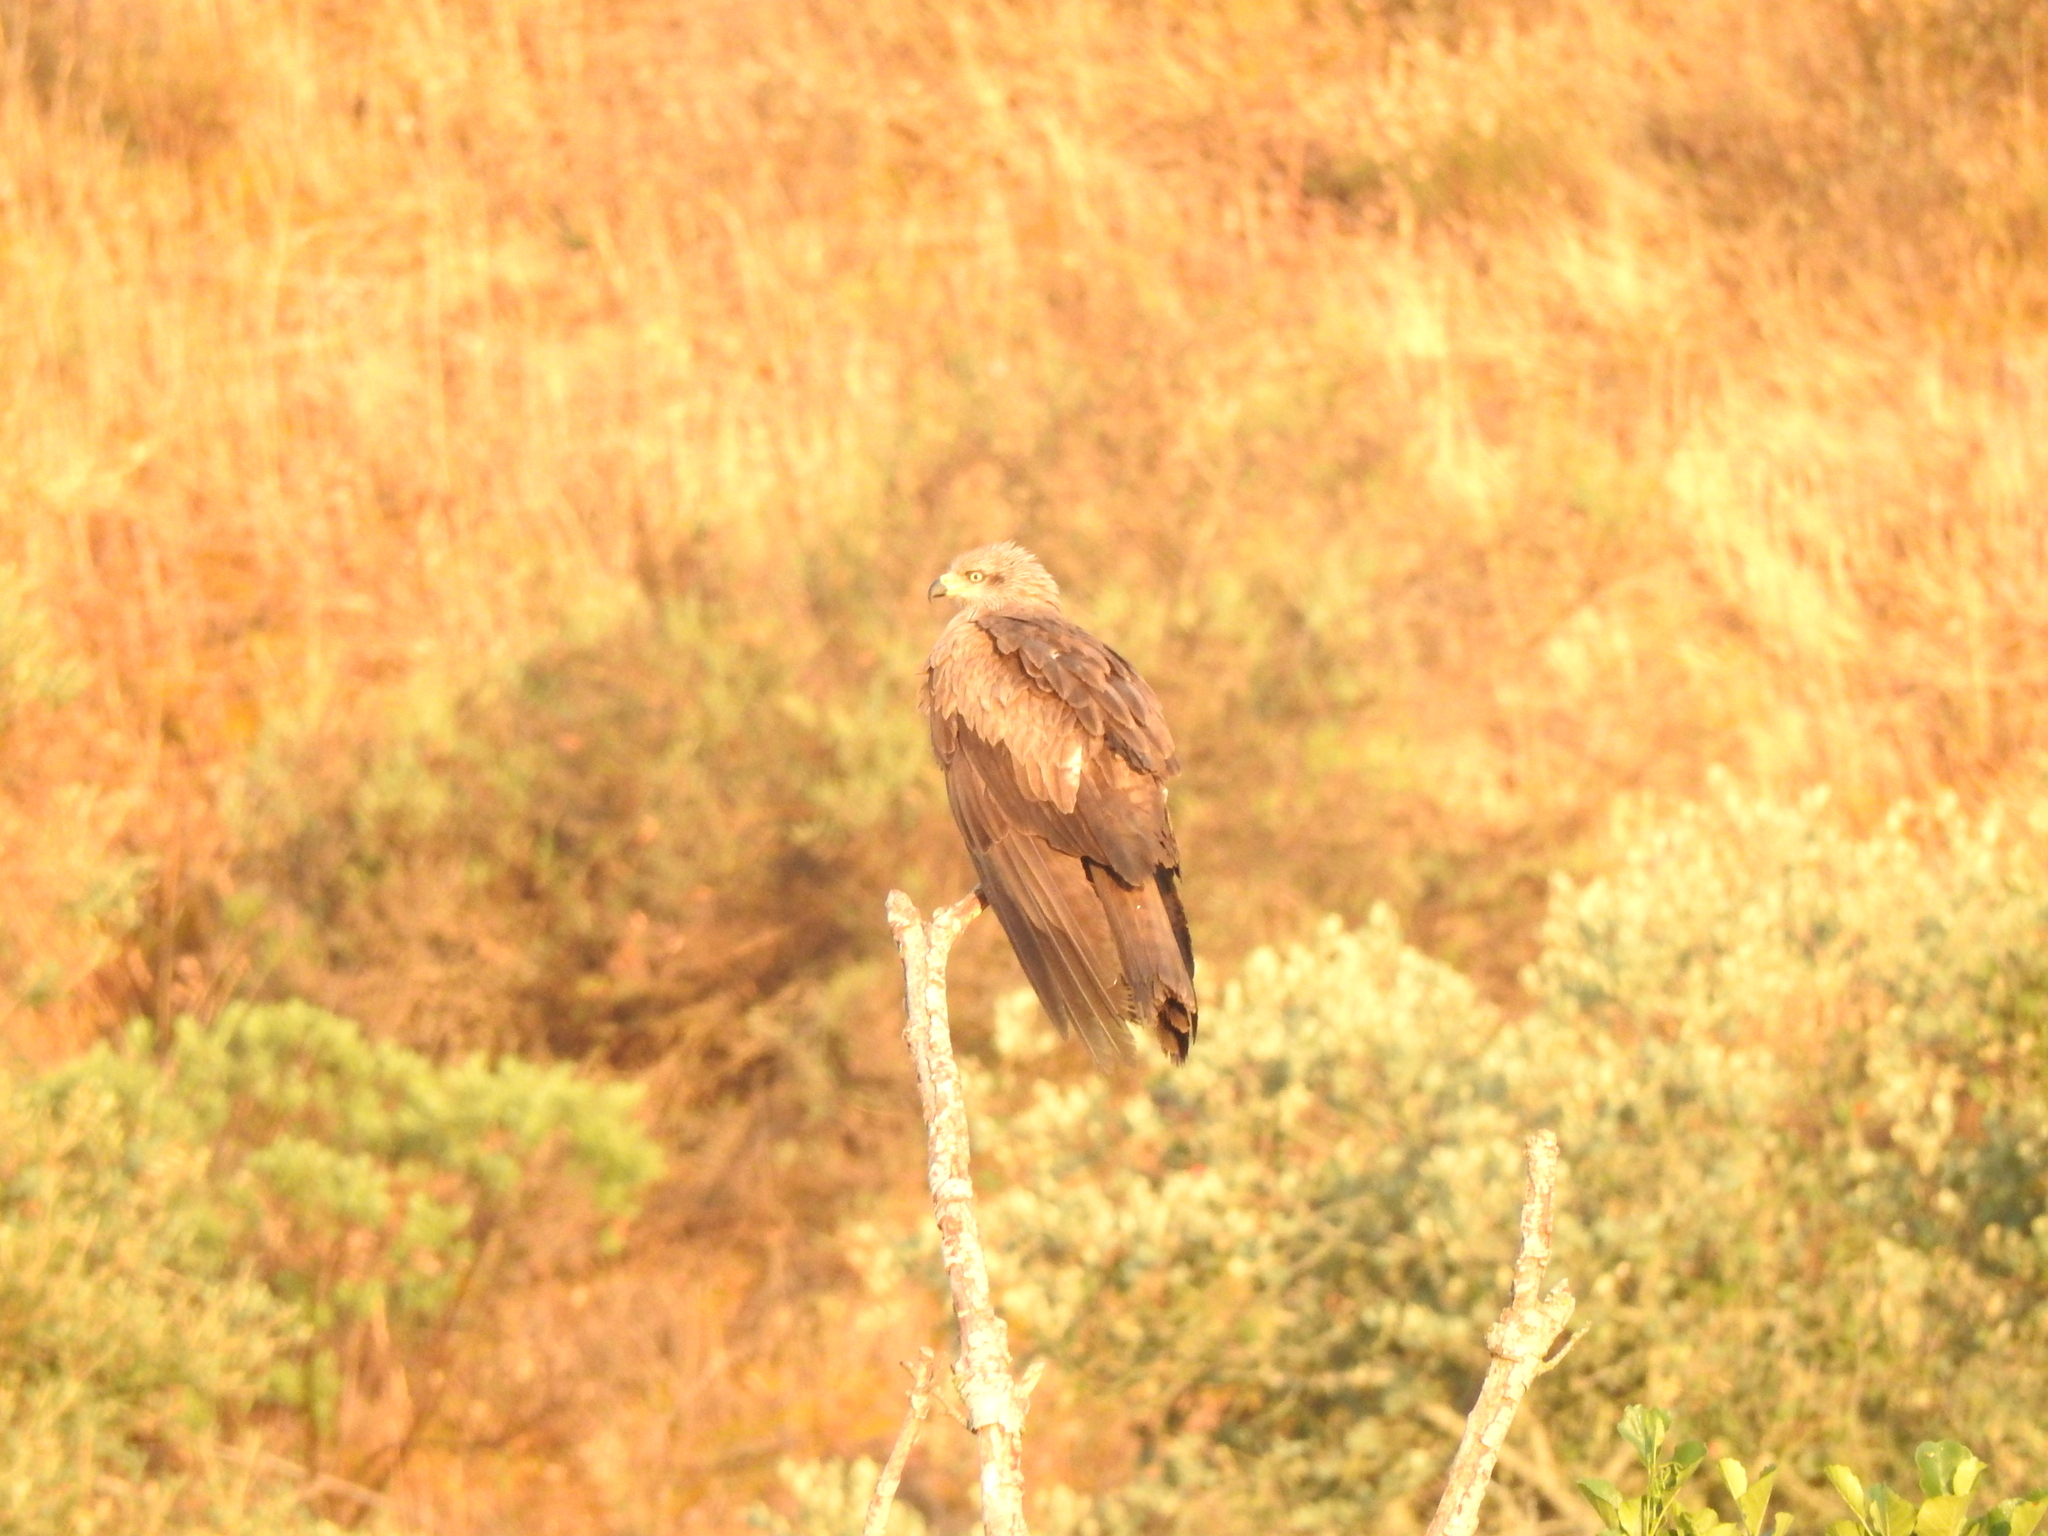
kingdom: Animalia
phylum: Chordata
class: Aves
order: Accipitriformes
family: Accipitridae
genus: Milvus
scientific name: Milvus migrans
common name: Black kite
